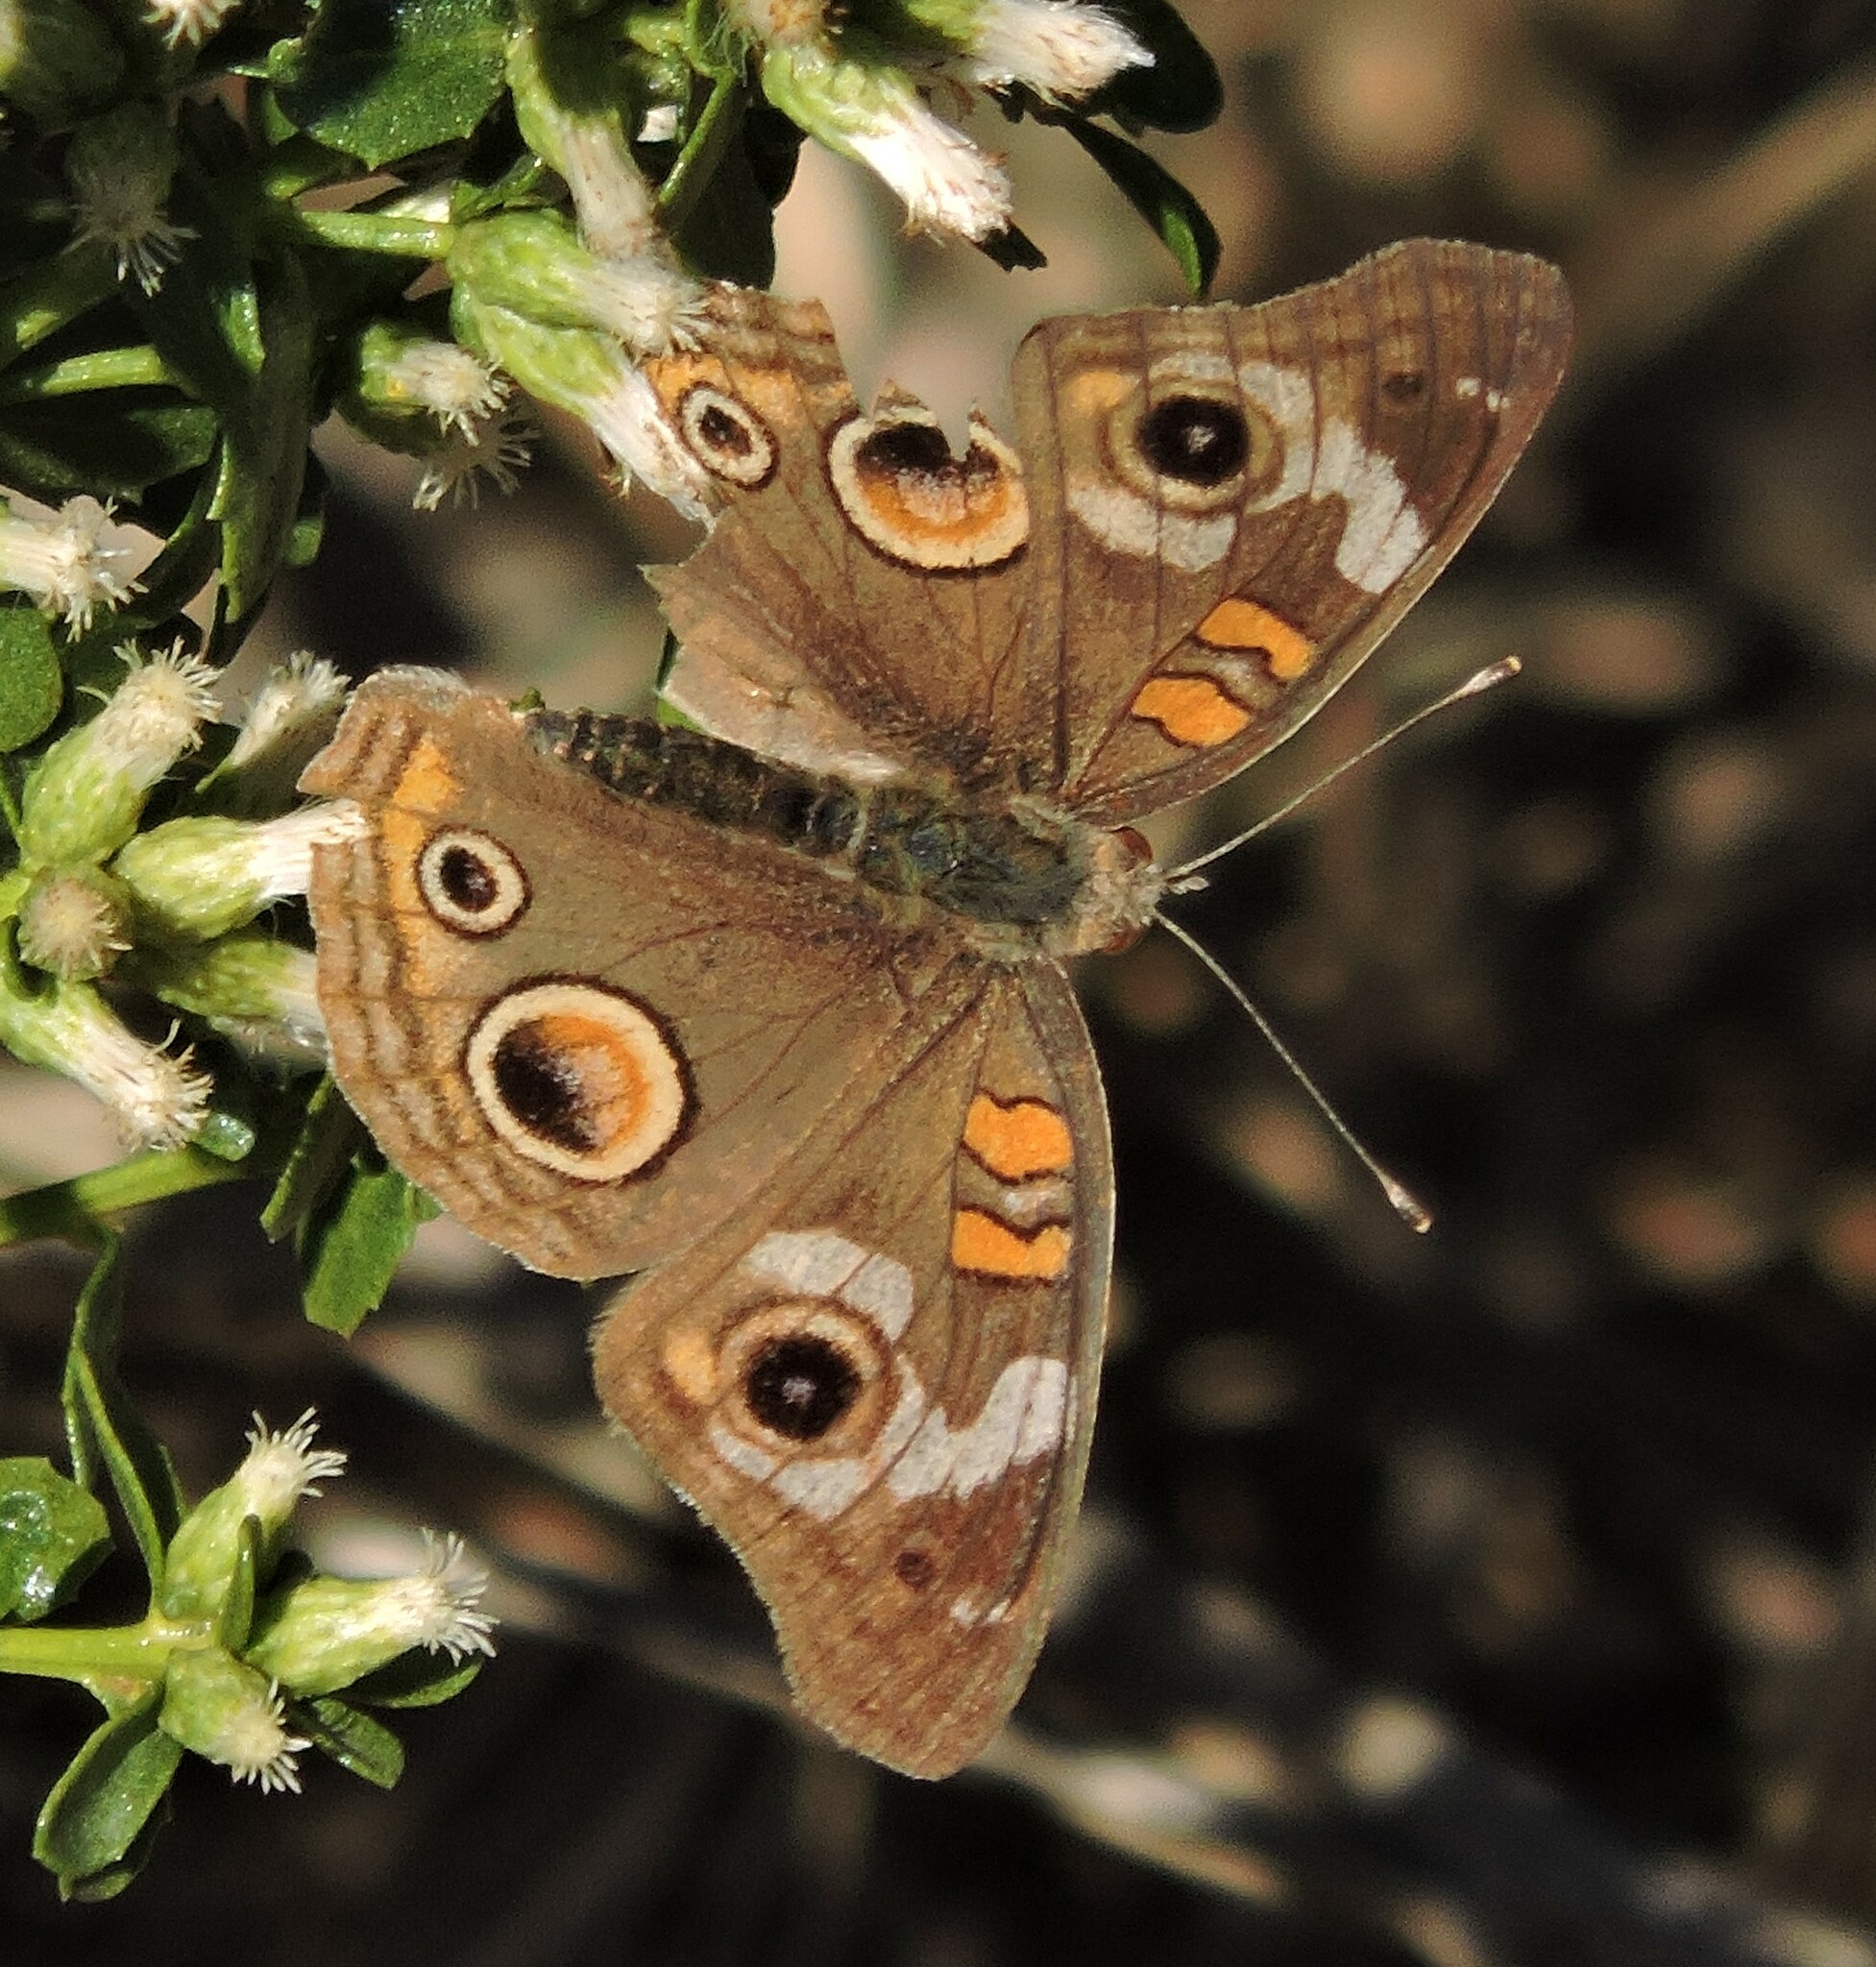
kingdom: Animalia
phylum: Arthropoda
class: Insecta
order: Lepidoptera
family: Nymphalidae
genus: Junonia
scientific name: Junonia grisea
